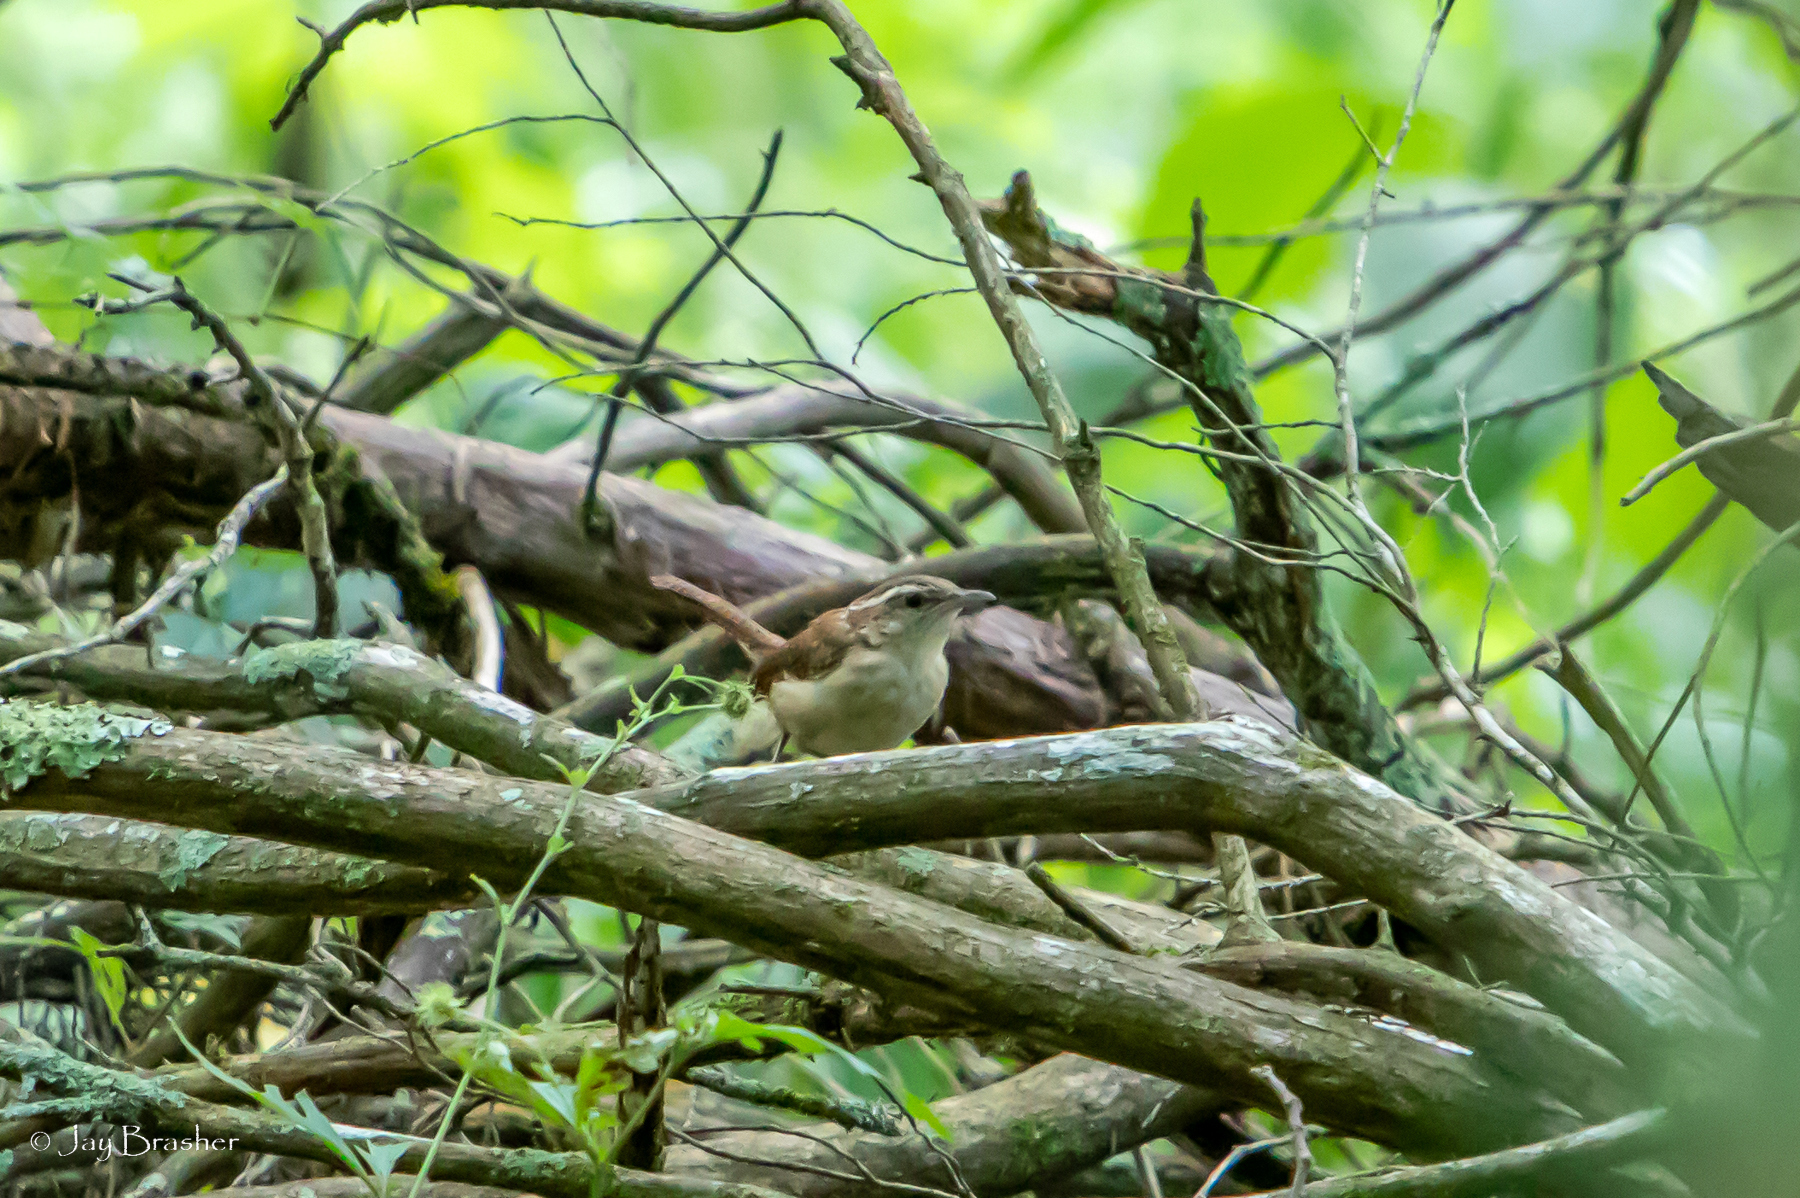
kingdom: Animalia
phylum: Chordata
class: Aves
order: Passeriformes
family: Troglodytidae
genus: Thryothorus
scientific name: Thryothorus ludovicianus
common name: Carolina wren
